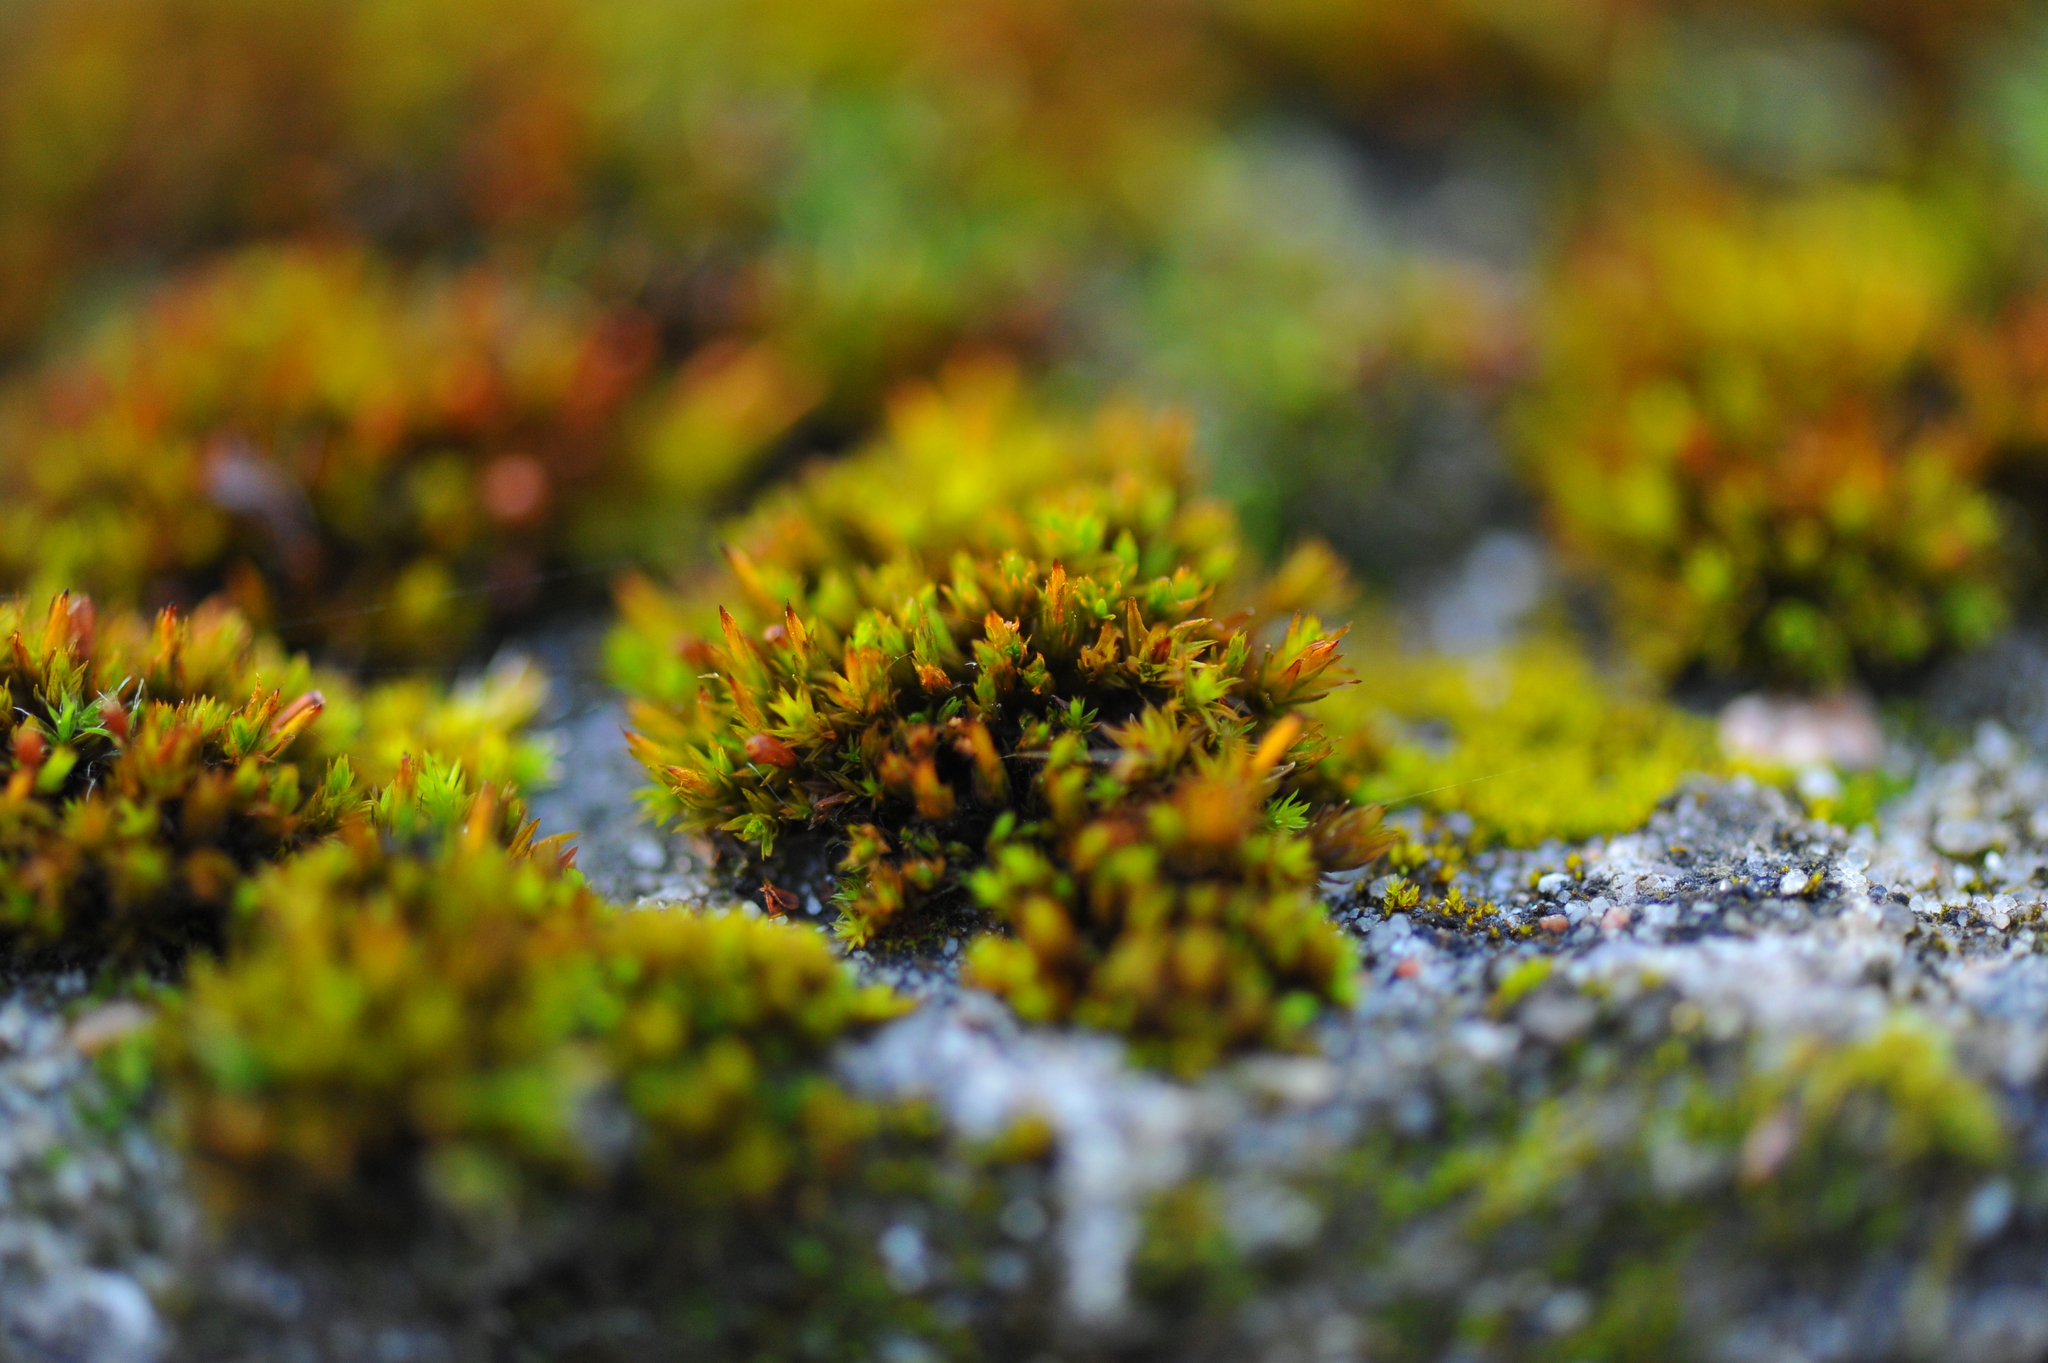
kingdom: Plantae
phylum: Bryophyta
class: Bryopsida
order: Orthotrichales
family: Orthotrichaceae
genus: Orthotrichum
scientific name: Orthotrichum anomalum
